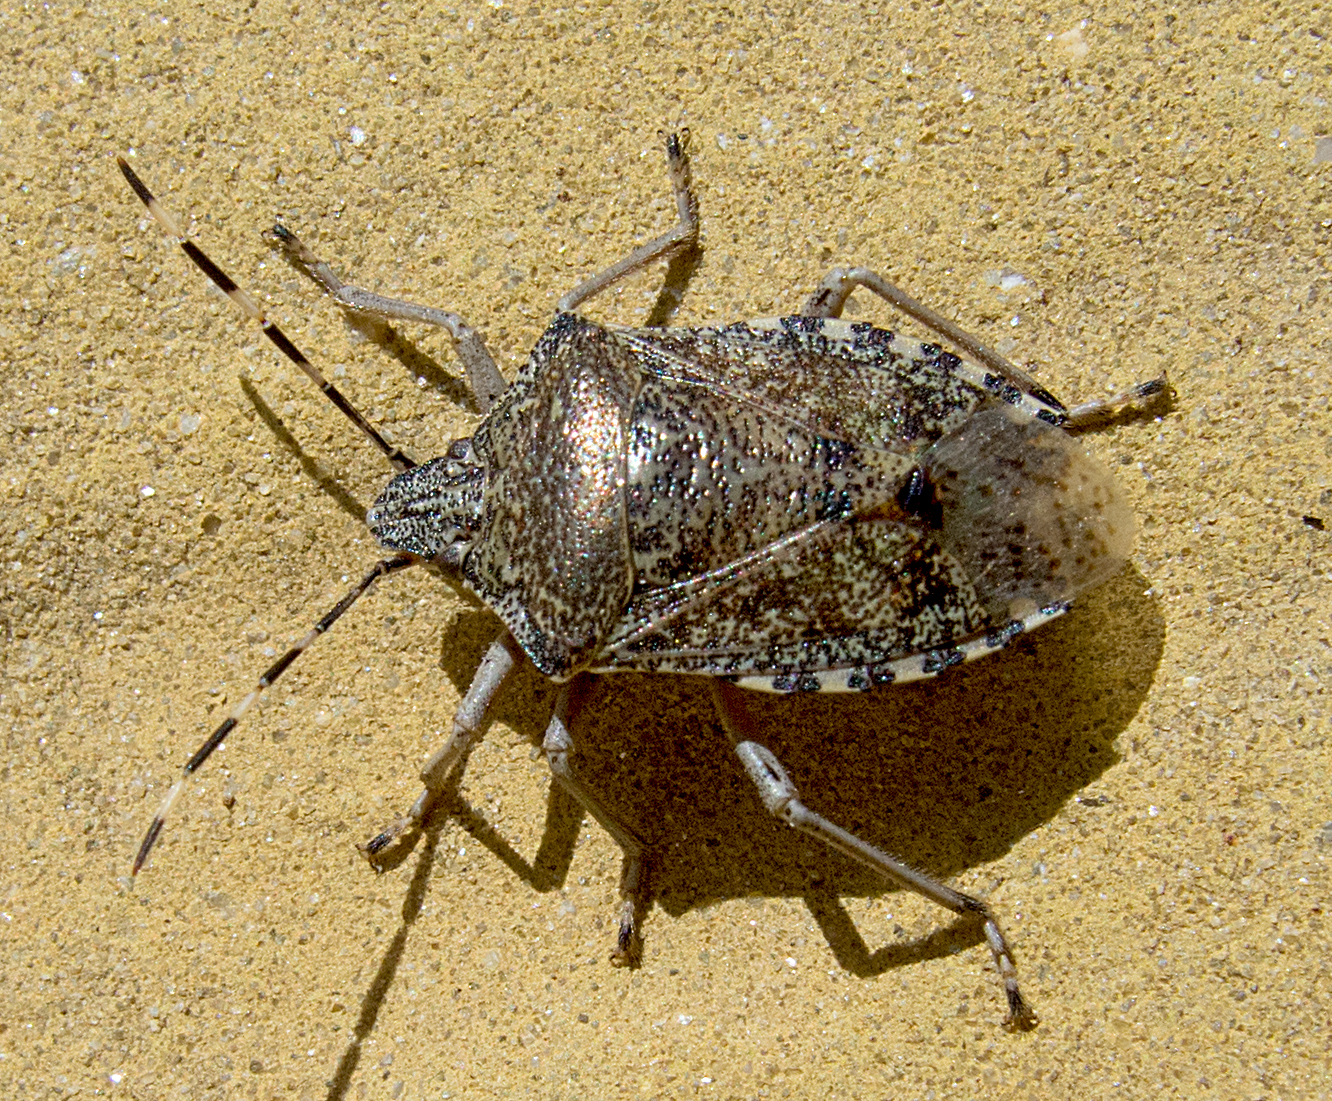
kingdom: Animalia
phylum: Arthropoda
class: Insecta
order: Hemiptera
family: Pentatomidae
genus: Rhaphigaster
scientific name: Rhaphigaster nebulosa
